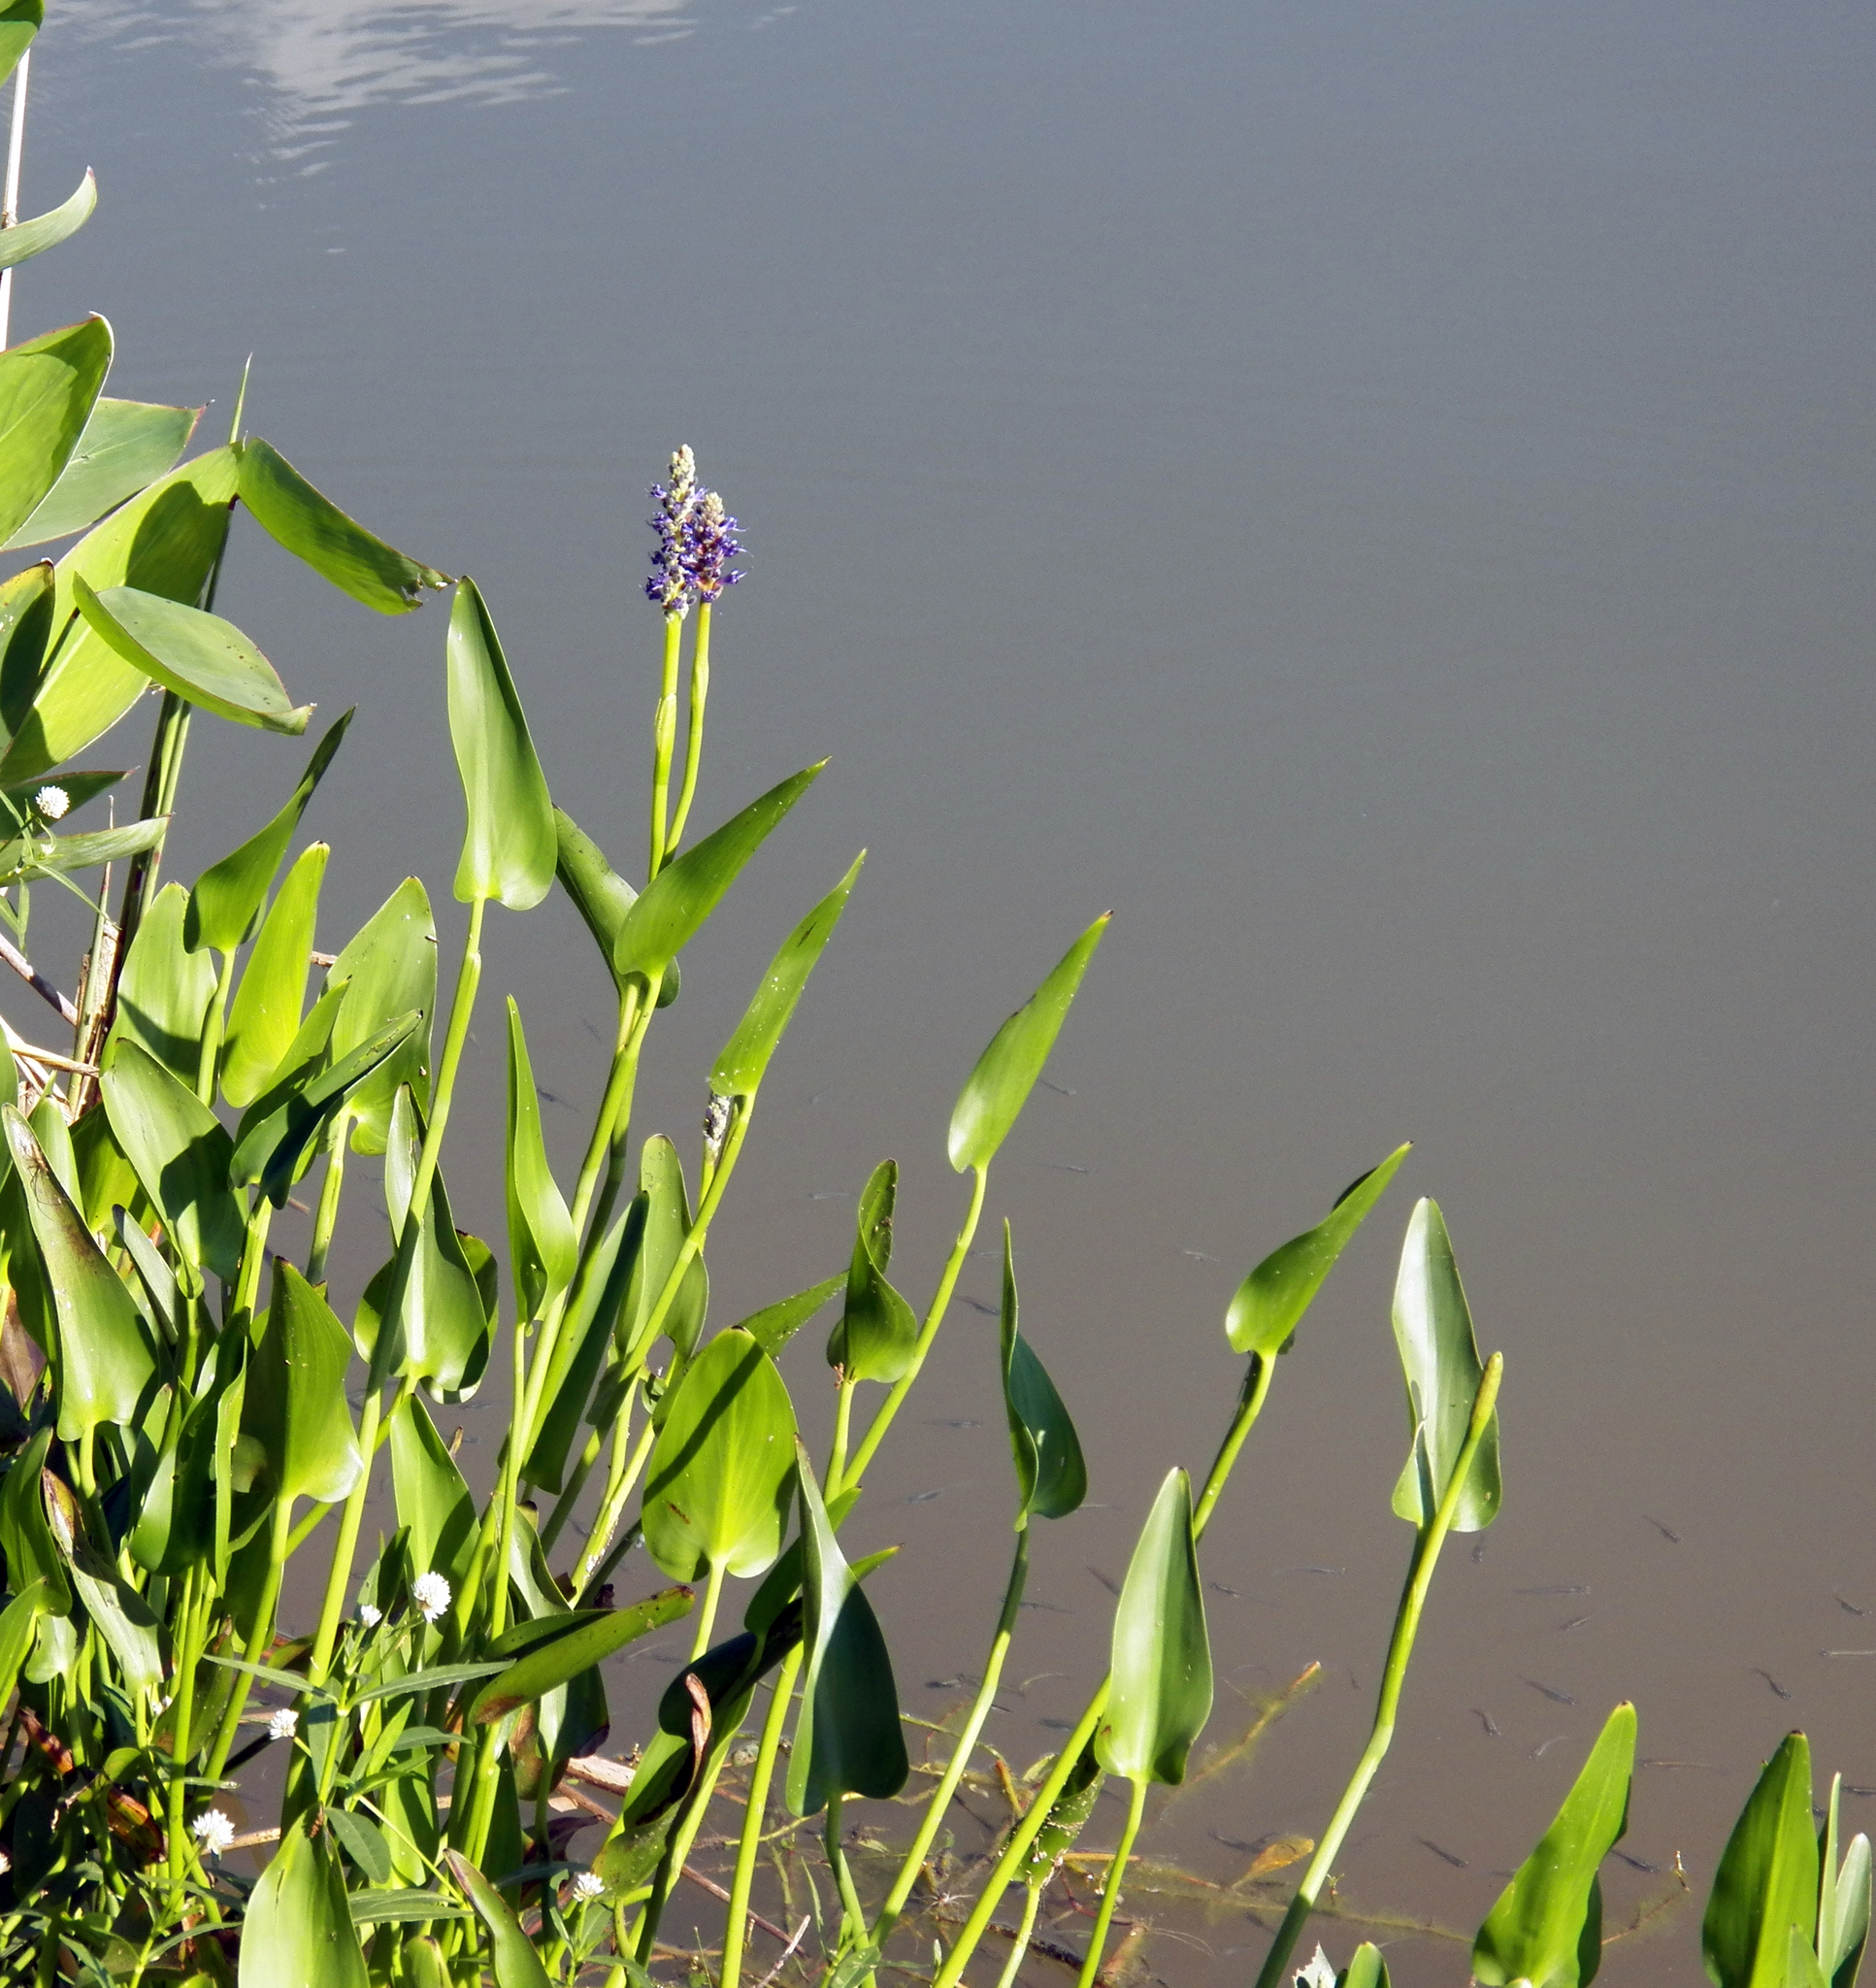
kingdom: Plantae
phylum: Tracheophyta
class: Liliopsida
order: Commelinales
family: Pontederiaceae
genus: Pontederia
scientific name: Pontederia cordata
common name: Pickerelweed
